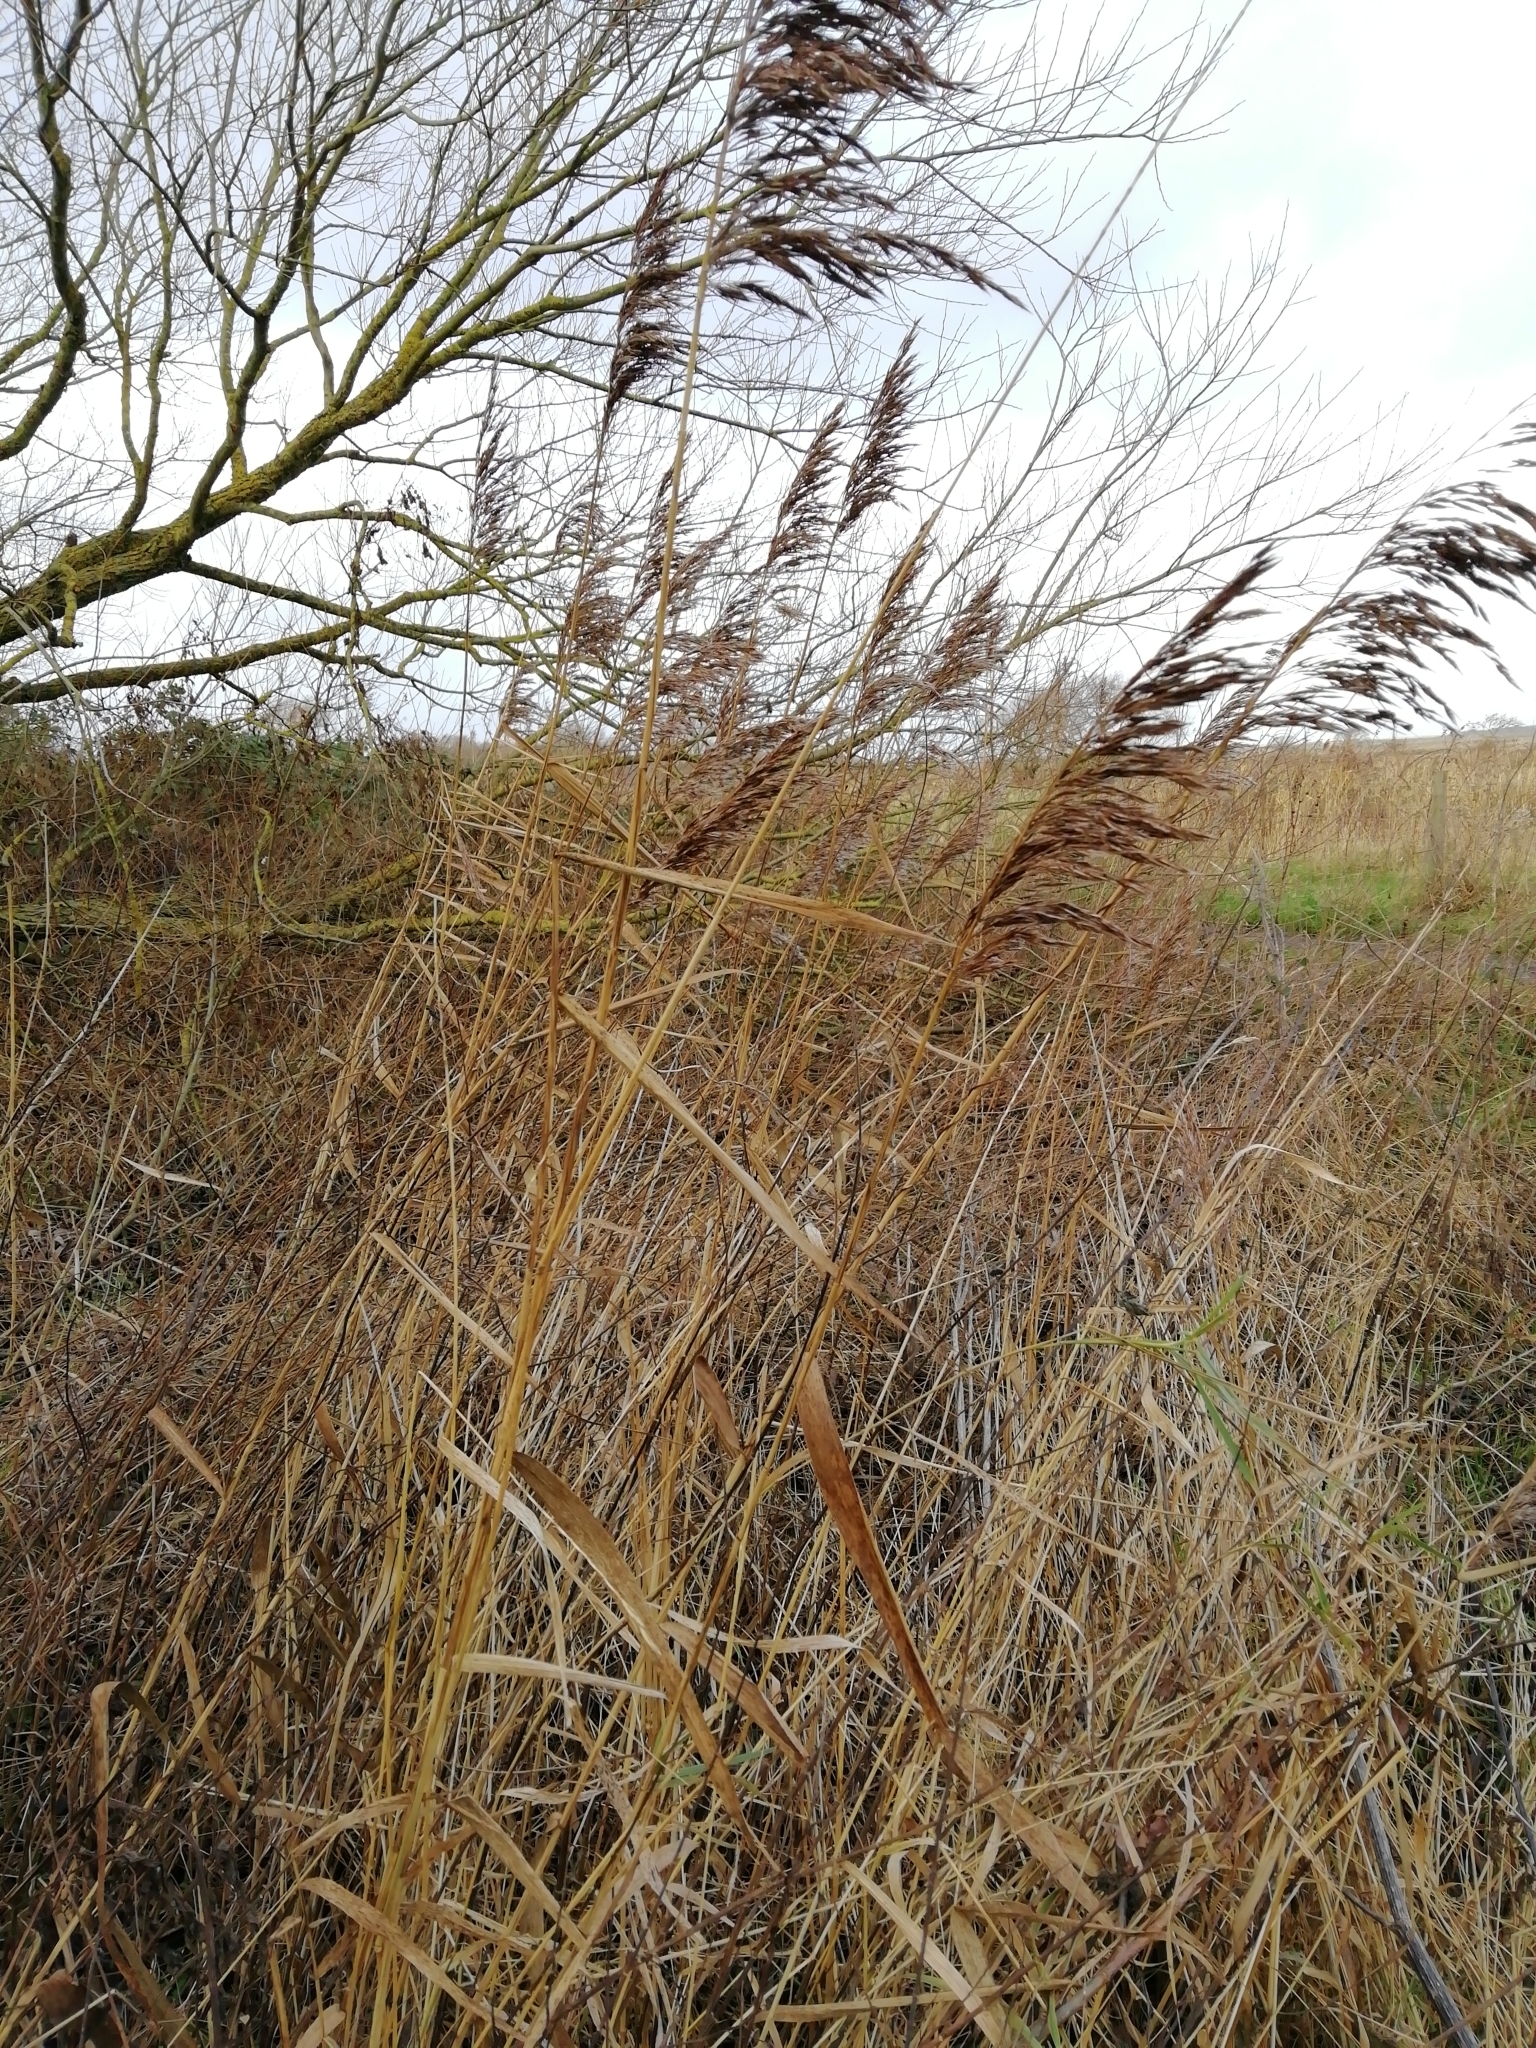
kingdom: Plantae
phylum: Tracheophyta
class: Liliopsida
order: Poales
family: Poaceae
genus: Phragmites
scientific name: Phragmites australis
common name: Common reed
